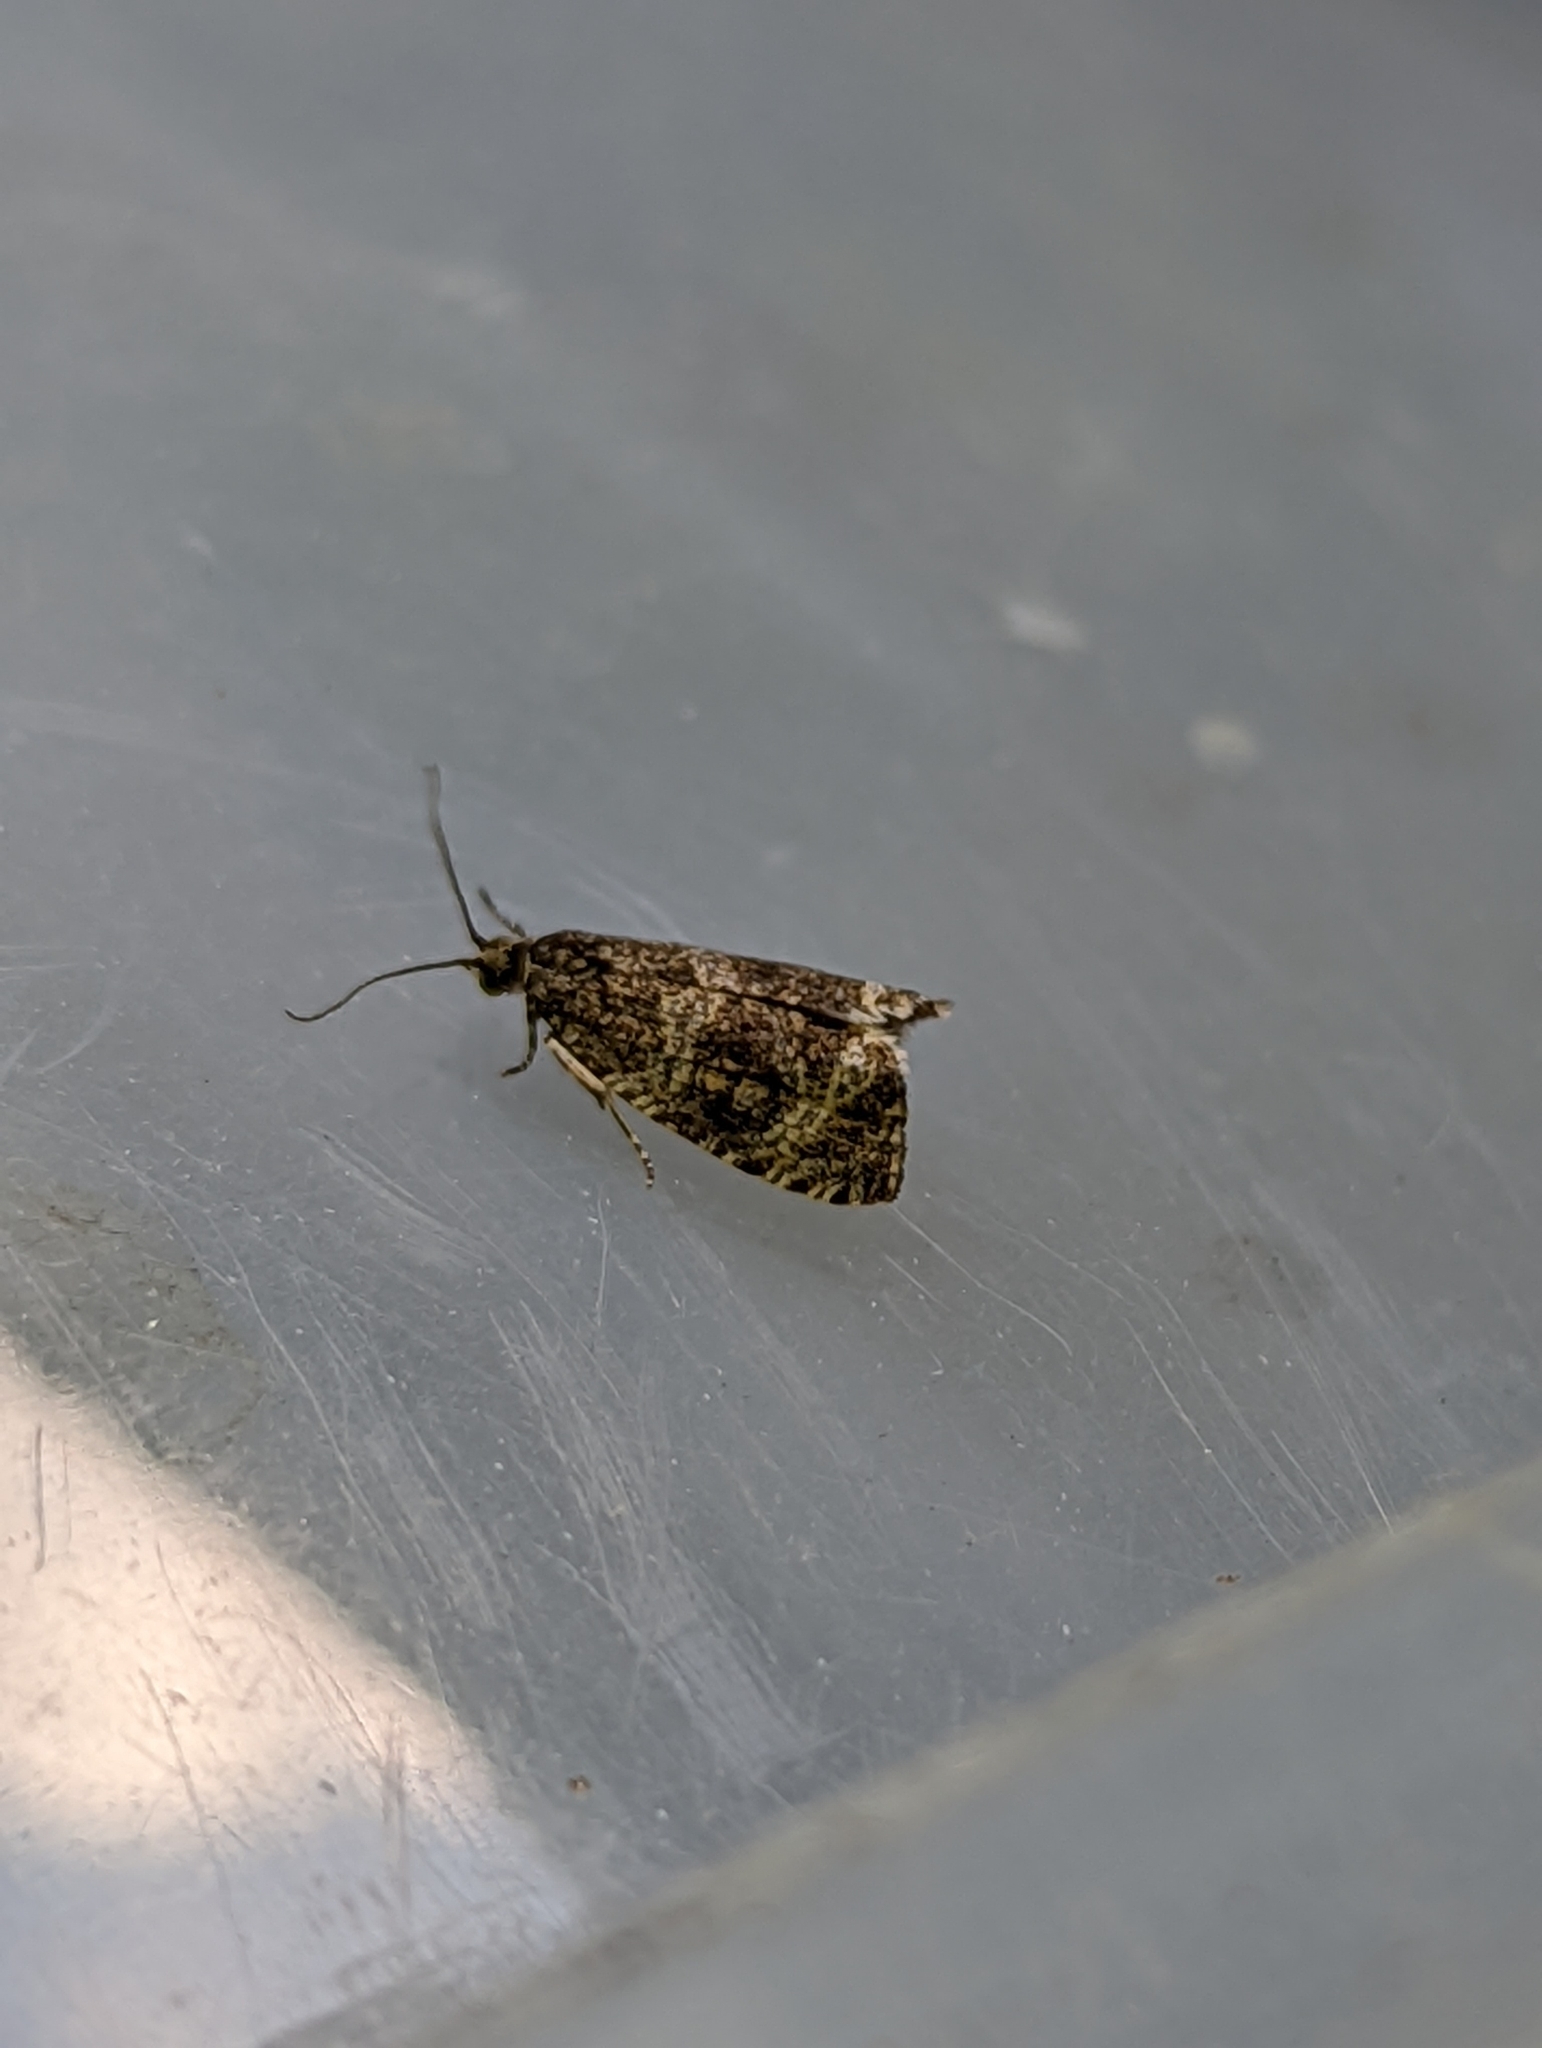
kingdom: Animalia
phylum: Arthropoda
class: Insecta
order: Lepidoptera
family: Tortricidae
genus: Syricoris
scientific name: Syricoris lacunana
